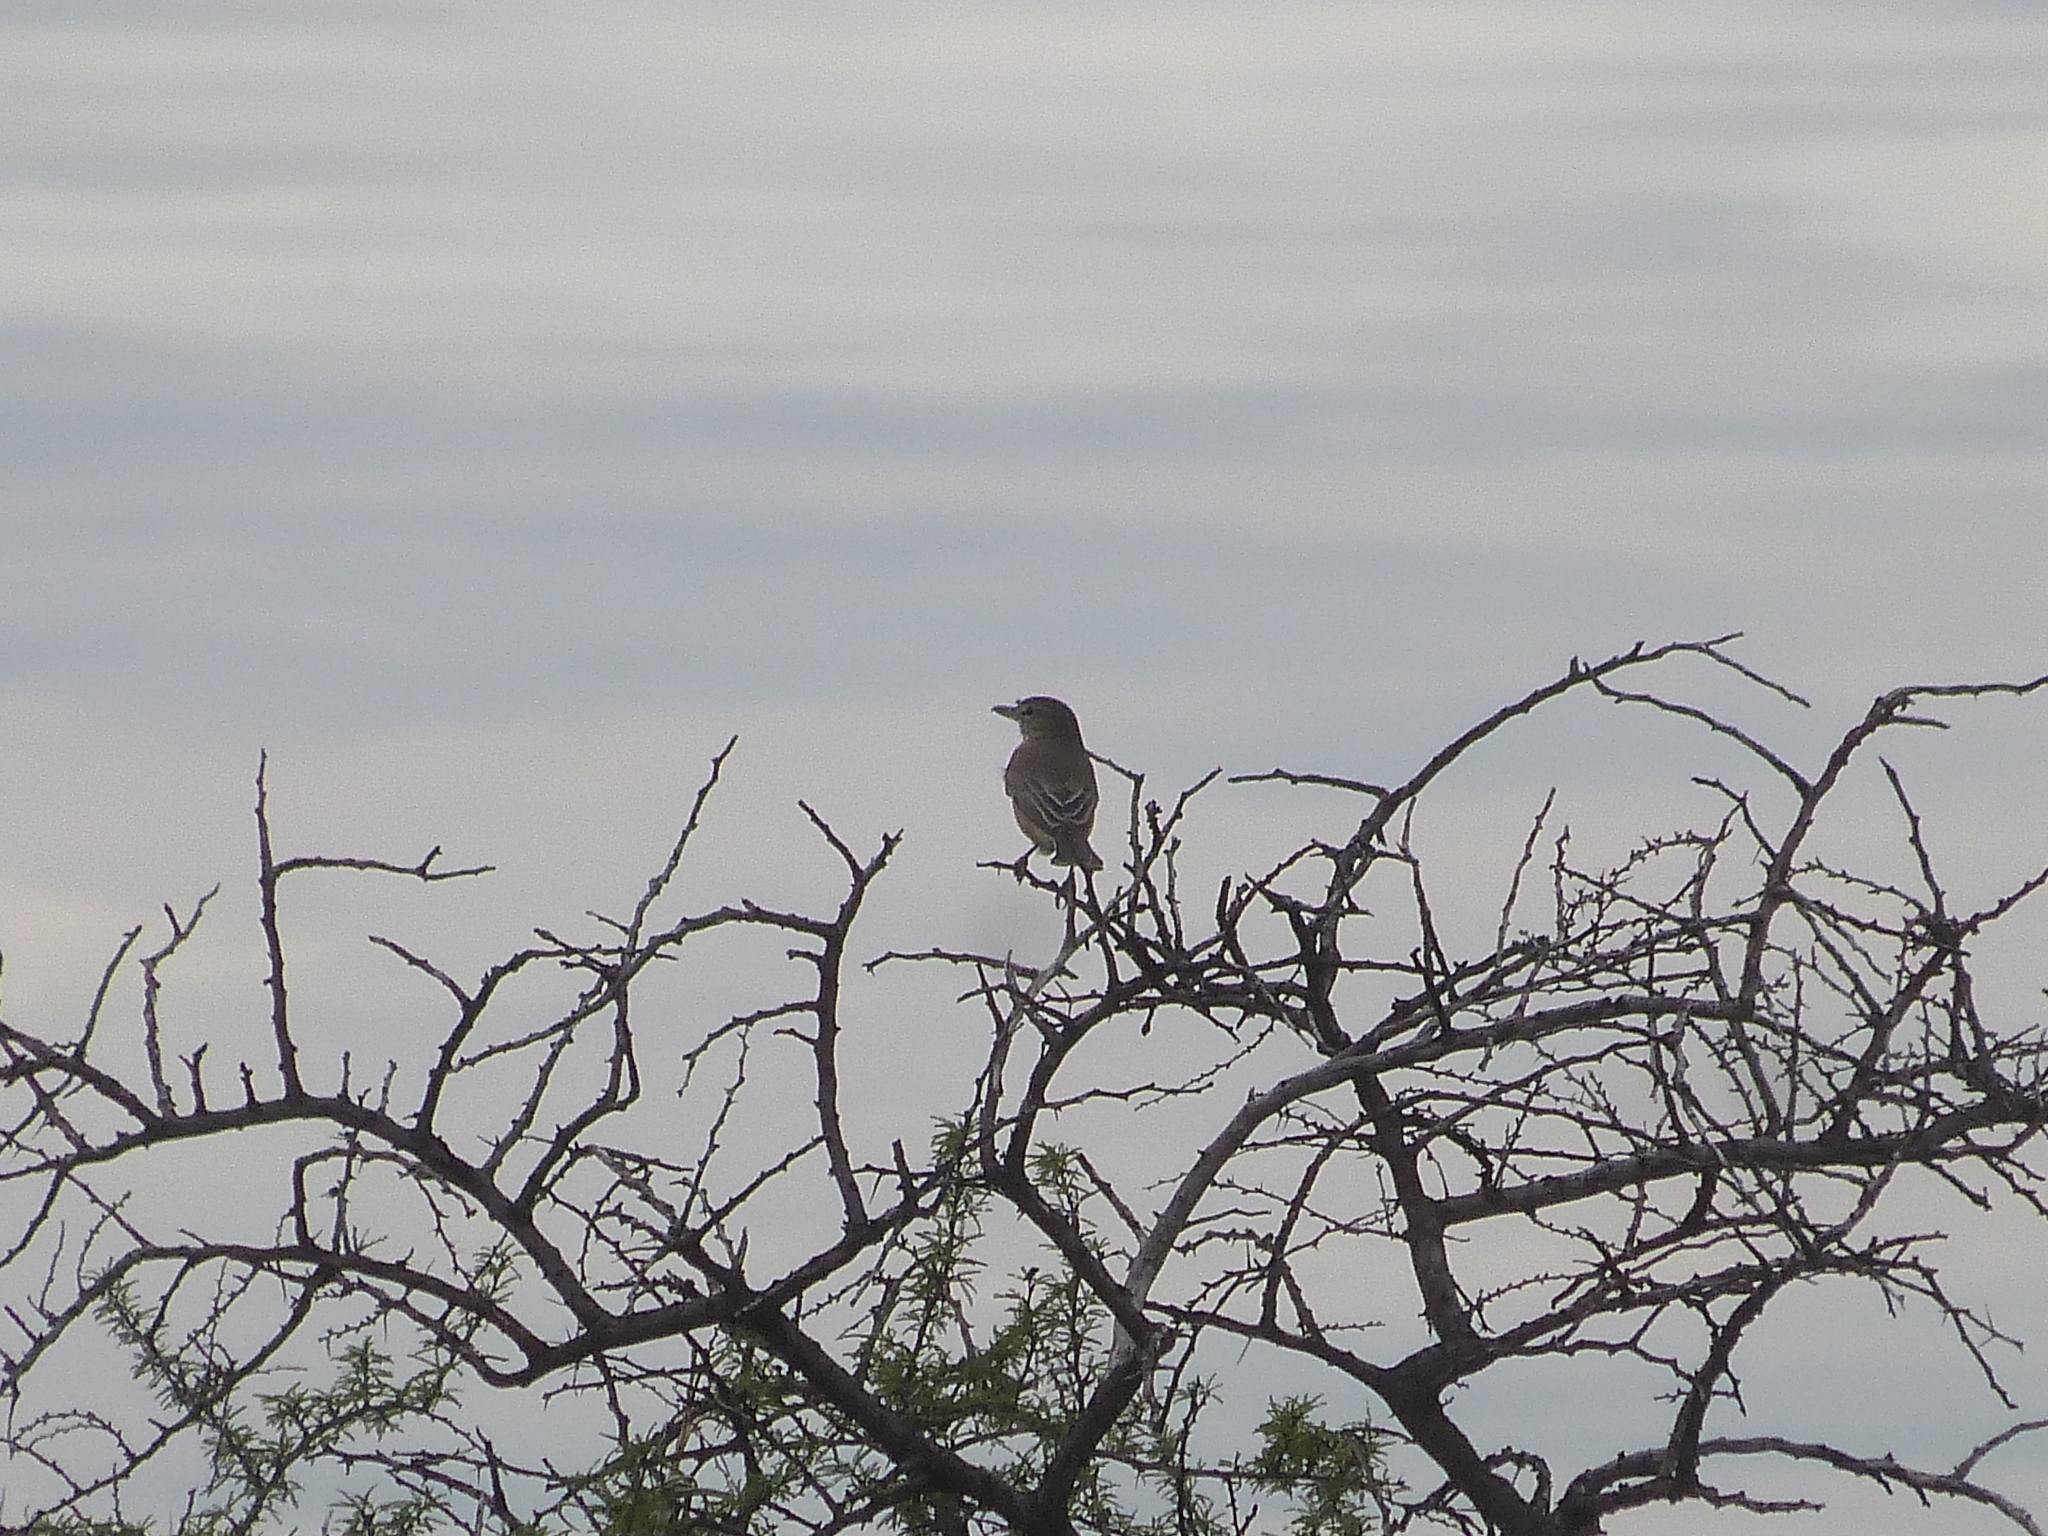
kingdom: Animalia
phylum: Chordata
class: Aves
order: Passeriformes
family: Tyrannidae
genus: Agriornis
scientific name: Agriornis micropterus
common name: Grey-bellied shrike-tyrant
